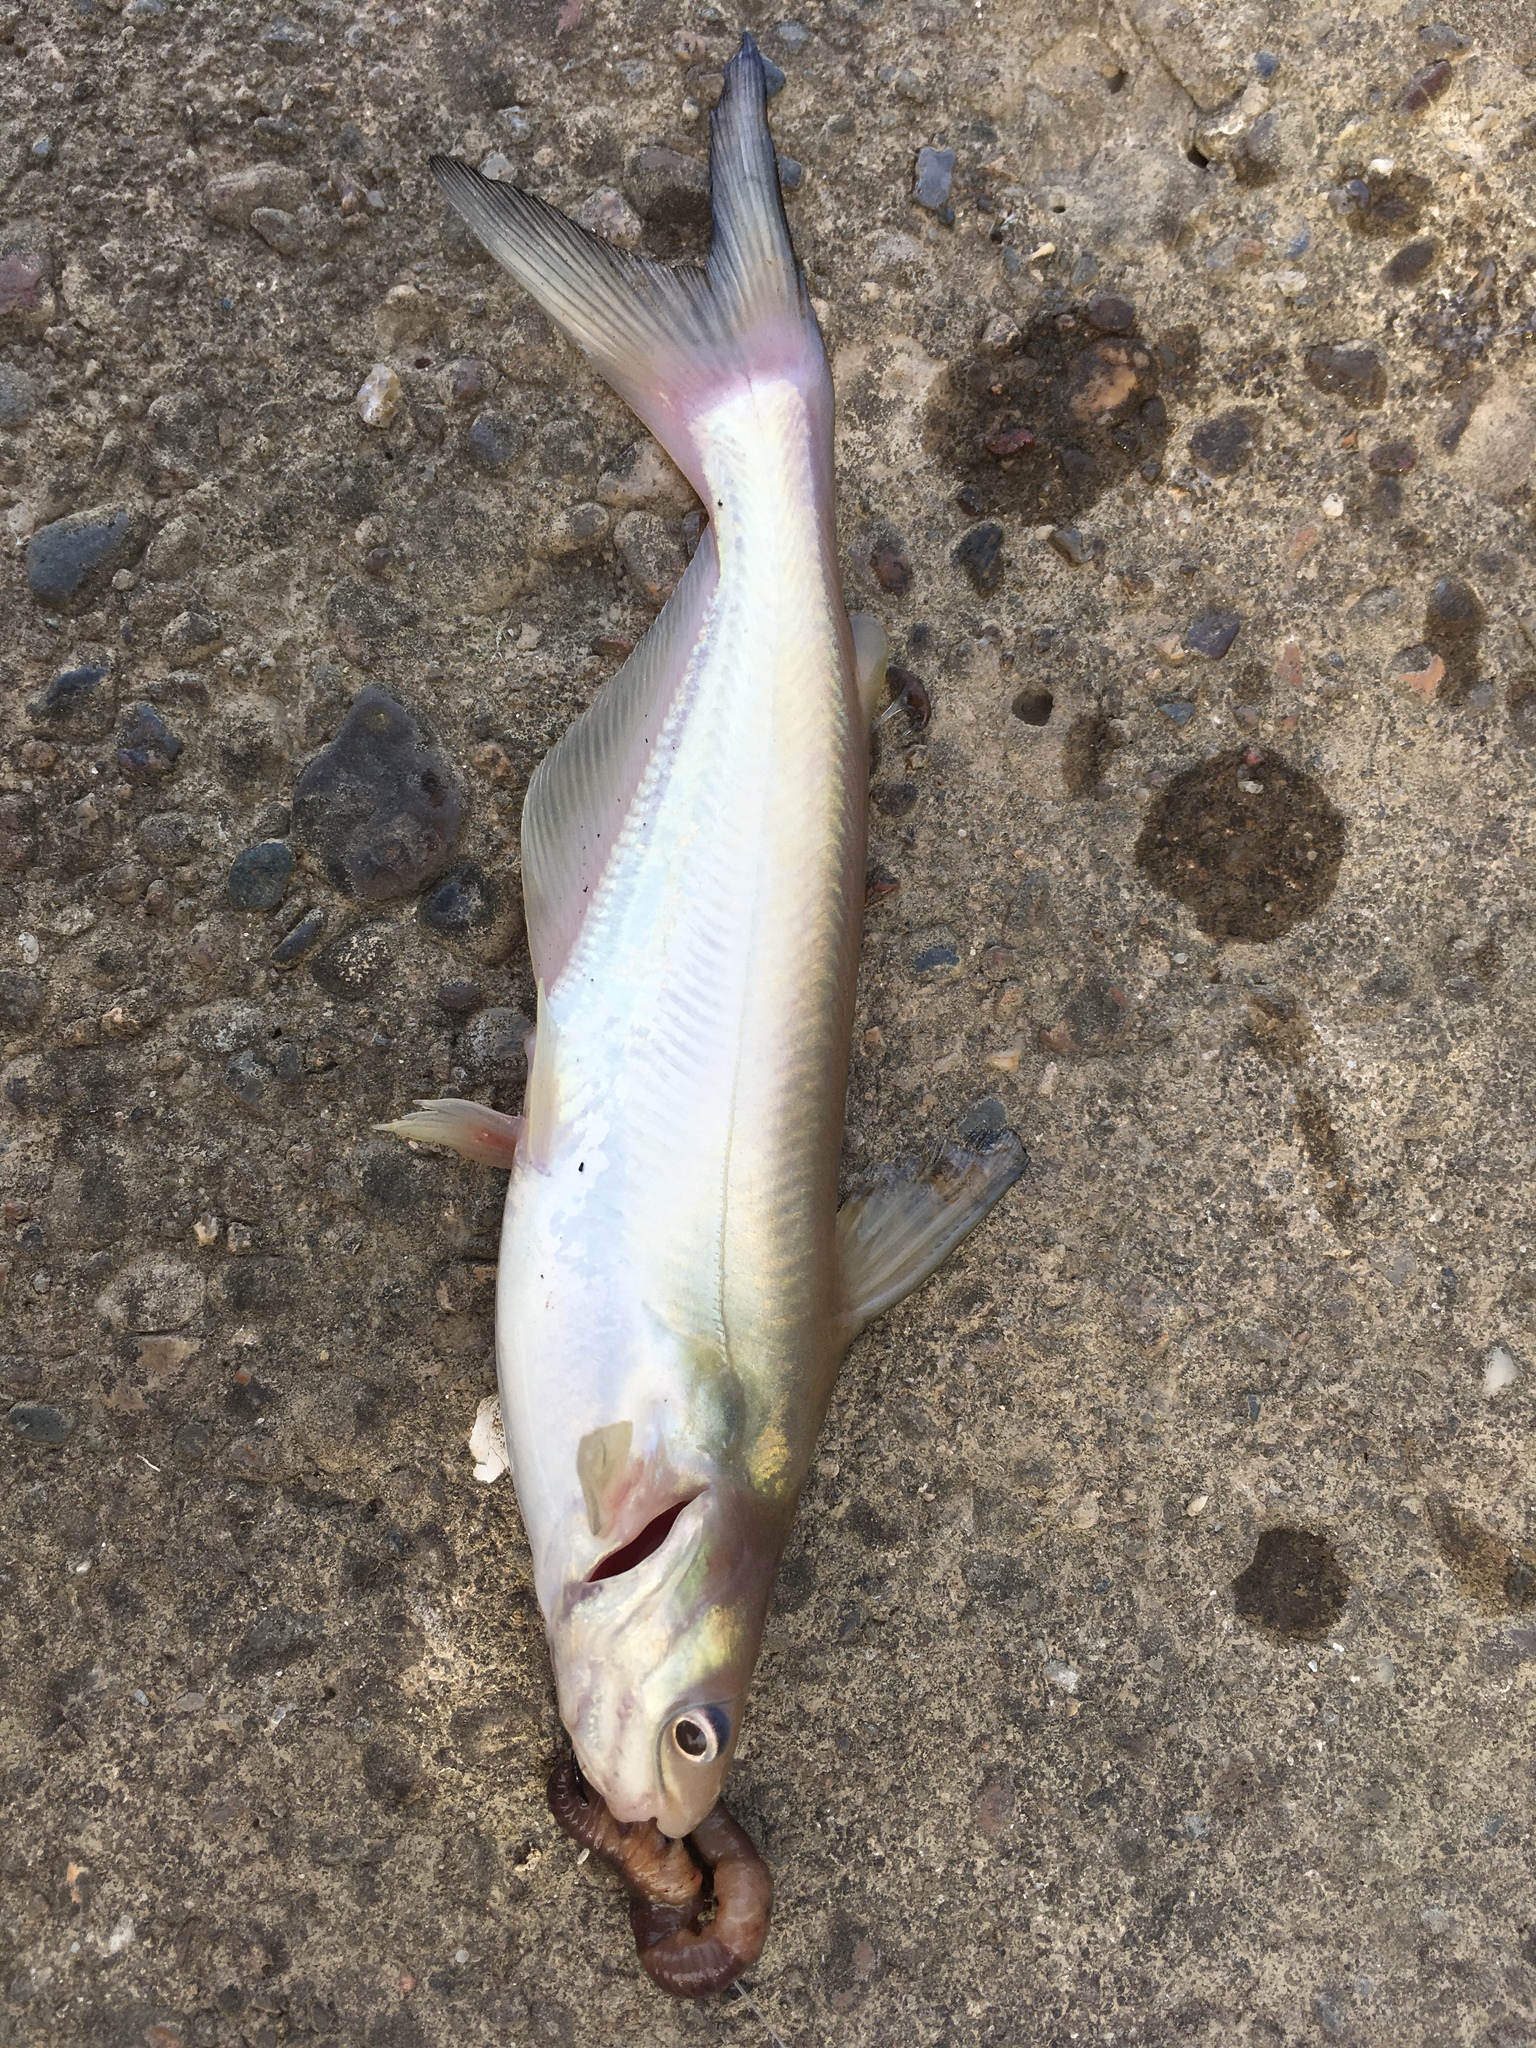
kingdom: Animalia
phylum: Chordata
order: Siluriformes
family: Ictaluridae
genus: Ictalurus
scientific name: Ictalurus furcatus
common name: Blue catfish
